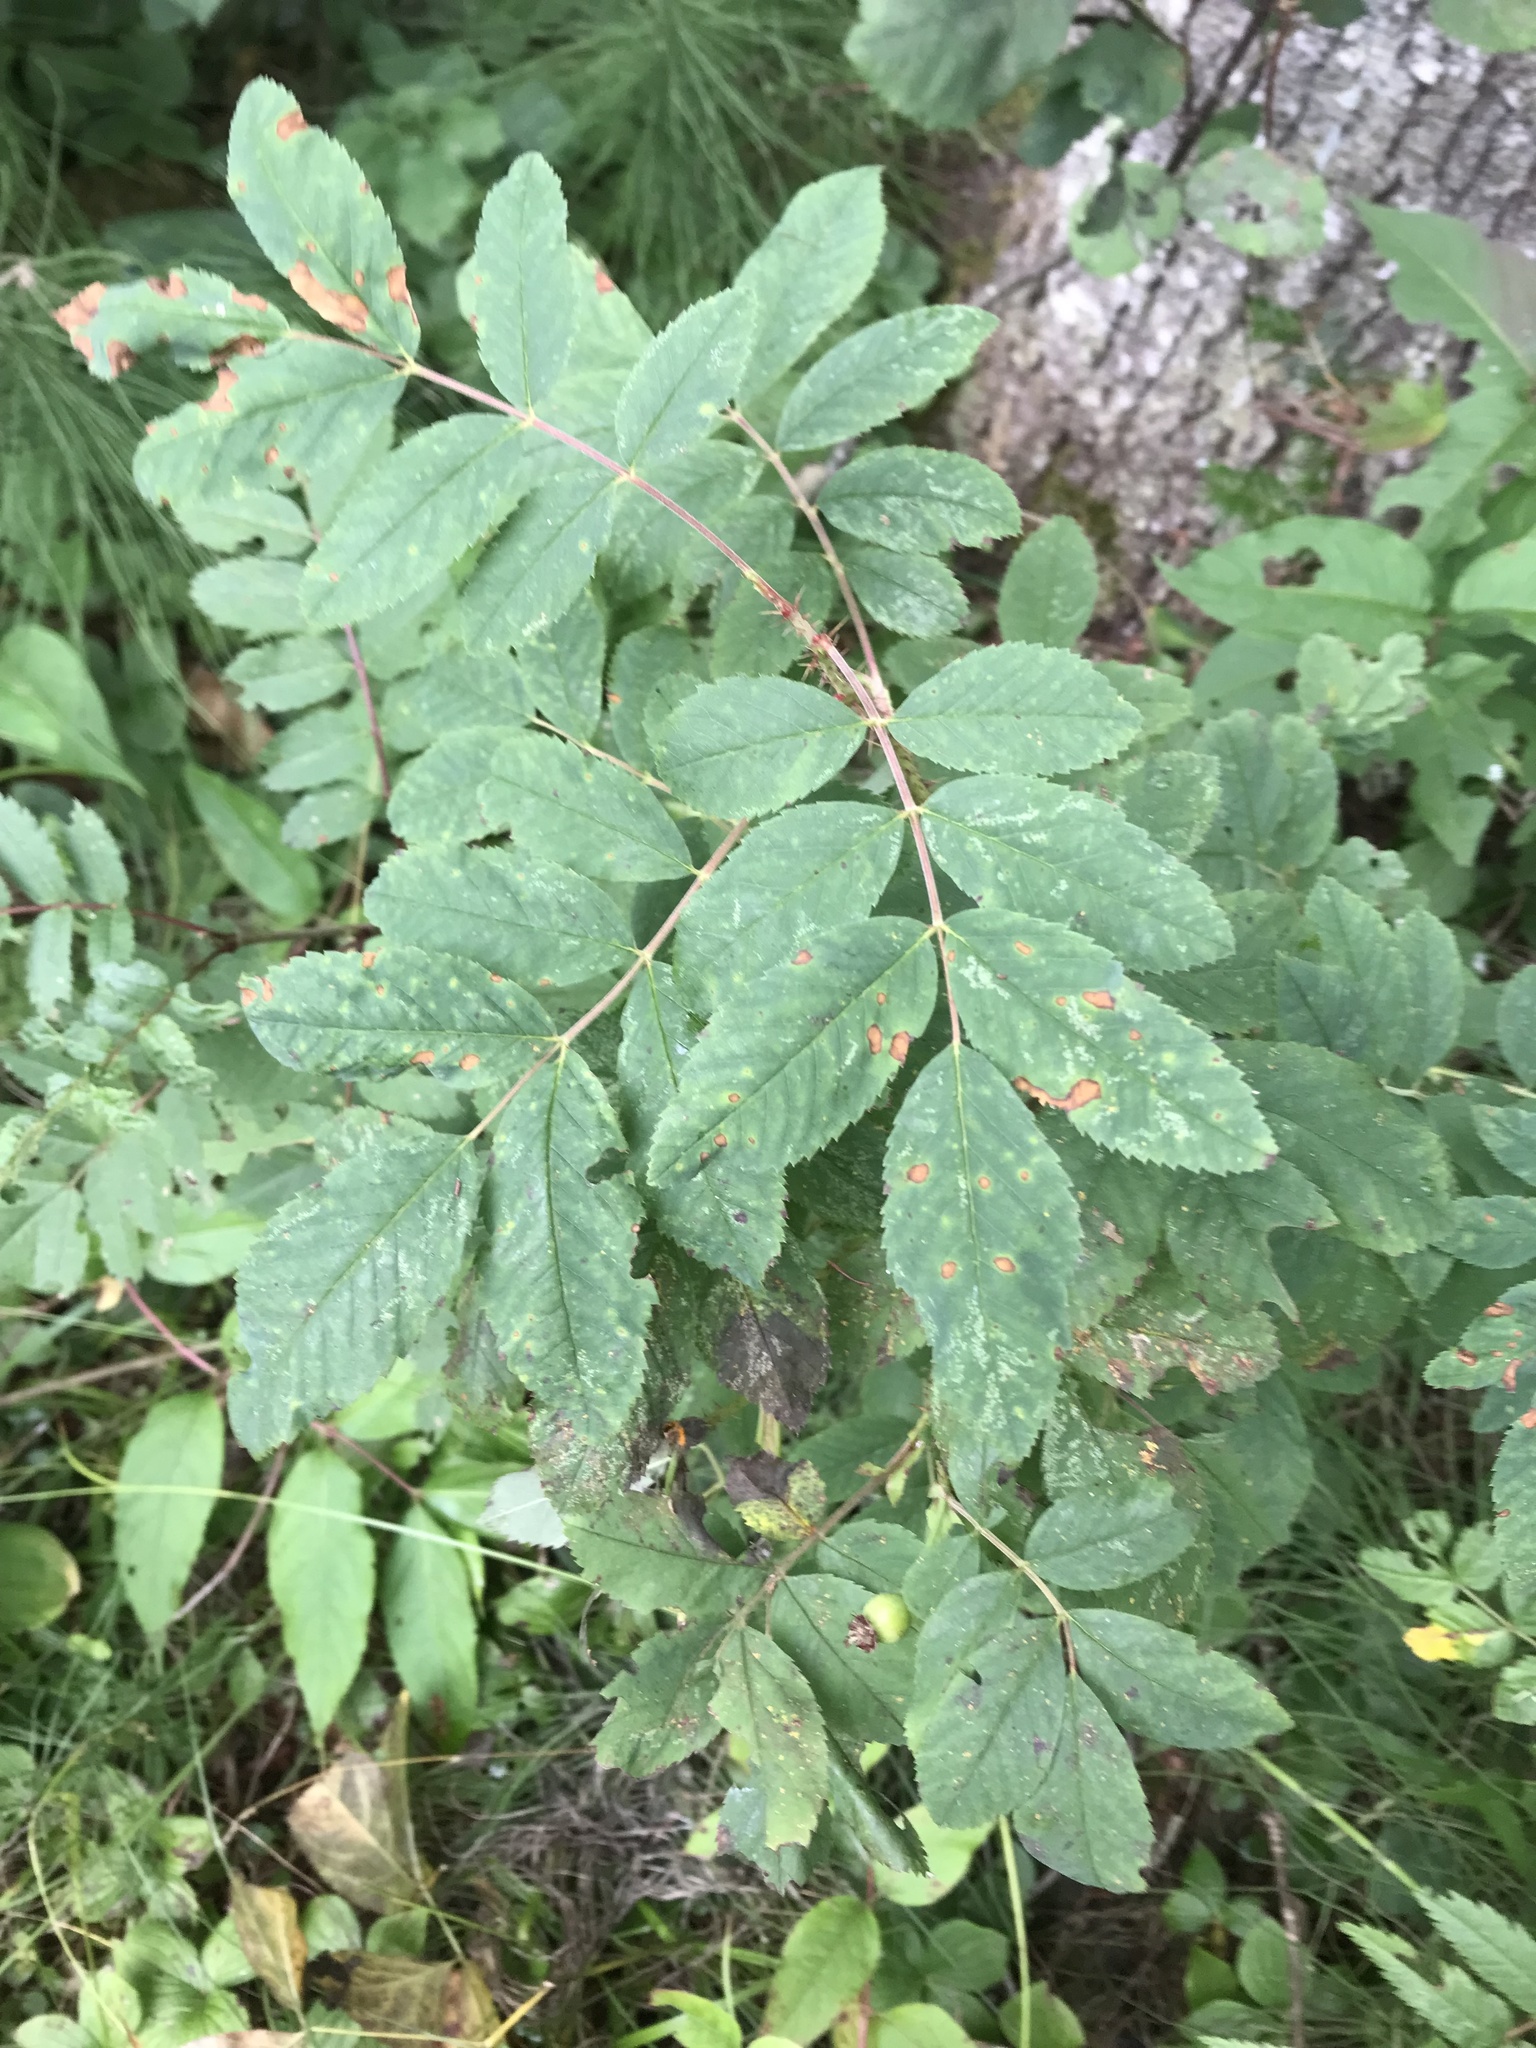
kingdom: Plantae
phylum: Tracheophyta
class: Magnoliopsida
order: Rosales
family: Rosaceae
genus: Rosa
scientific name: Rosa acicularis
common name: Prickly rose
